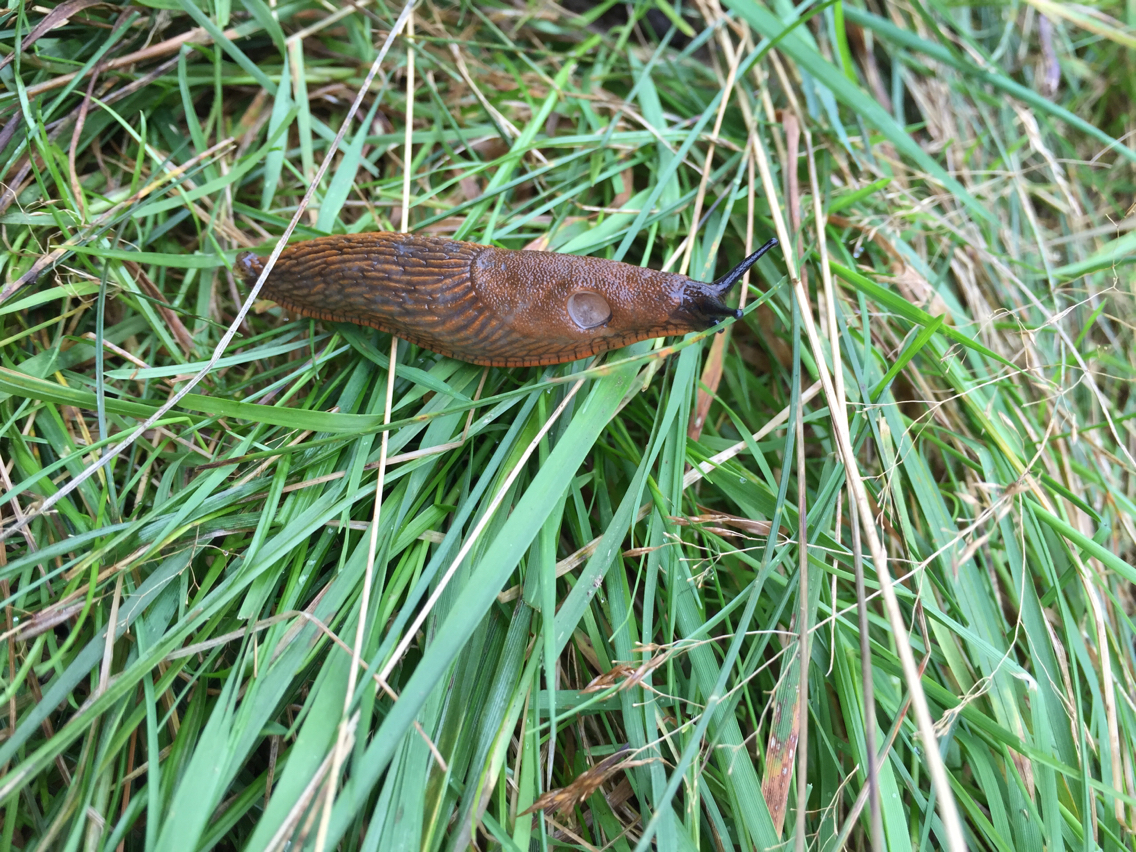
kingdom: Animalia
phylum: Mollusca
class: Gastropoda
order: Stylommatophora
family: Arionidae
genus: Arion
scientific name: Arion rufus
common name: Chocolate arion
